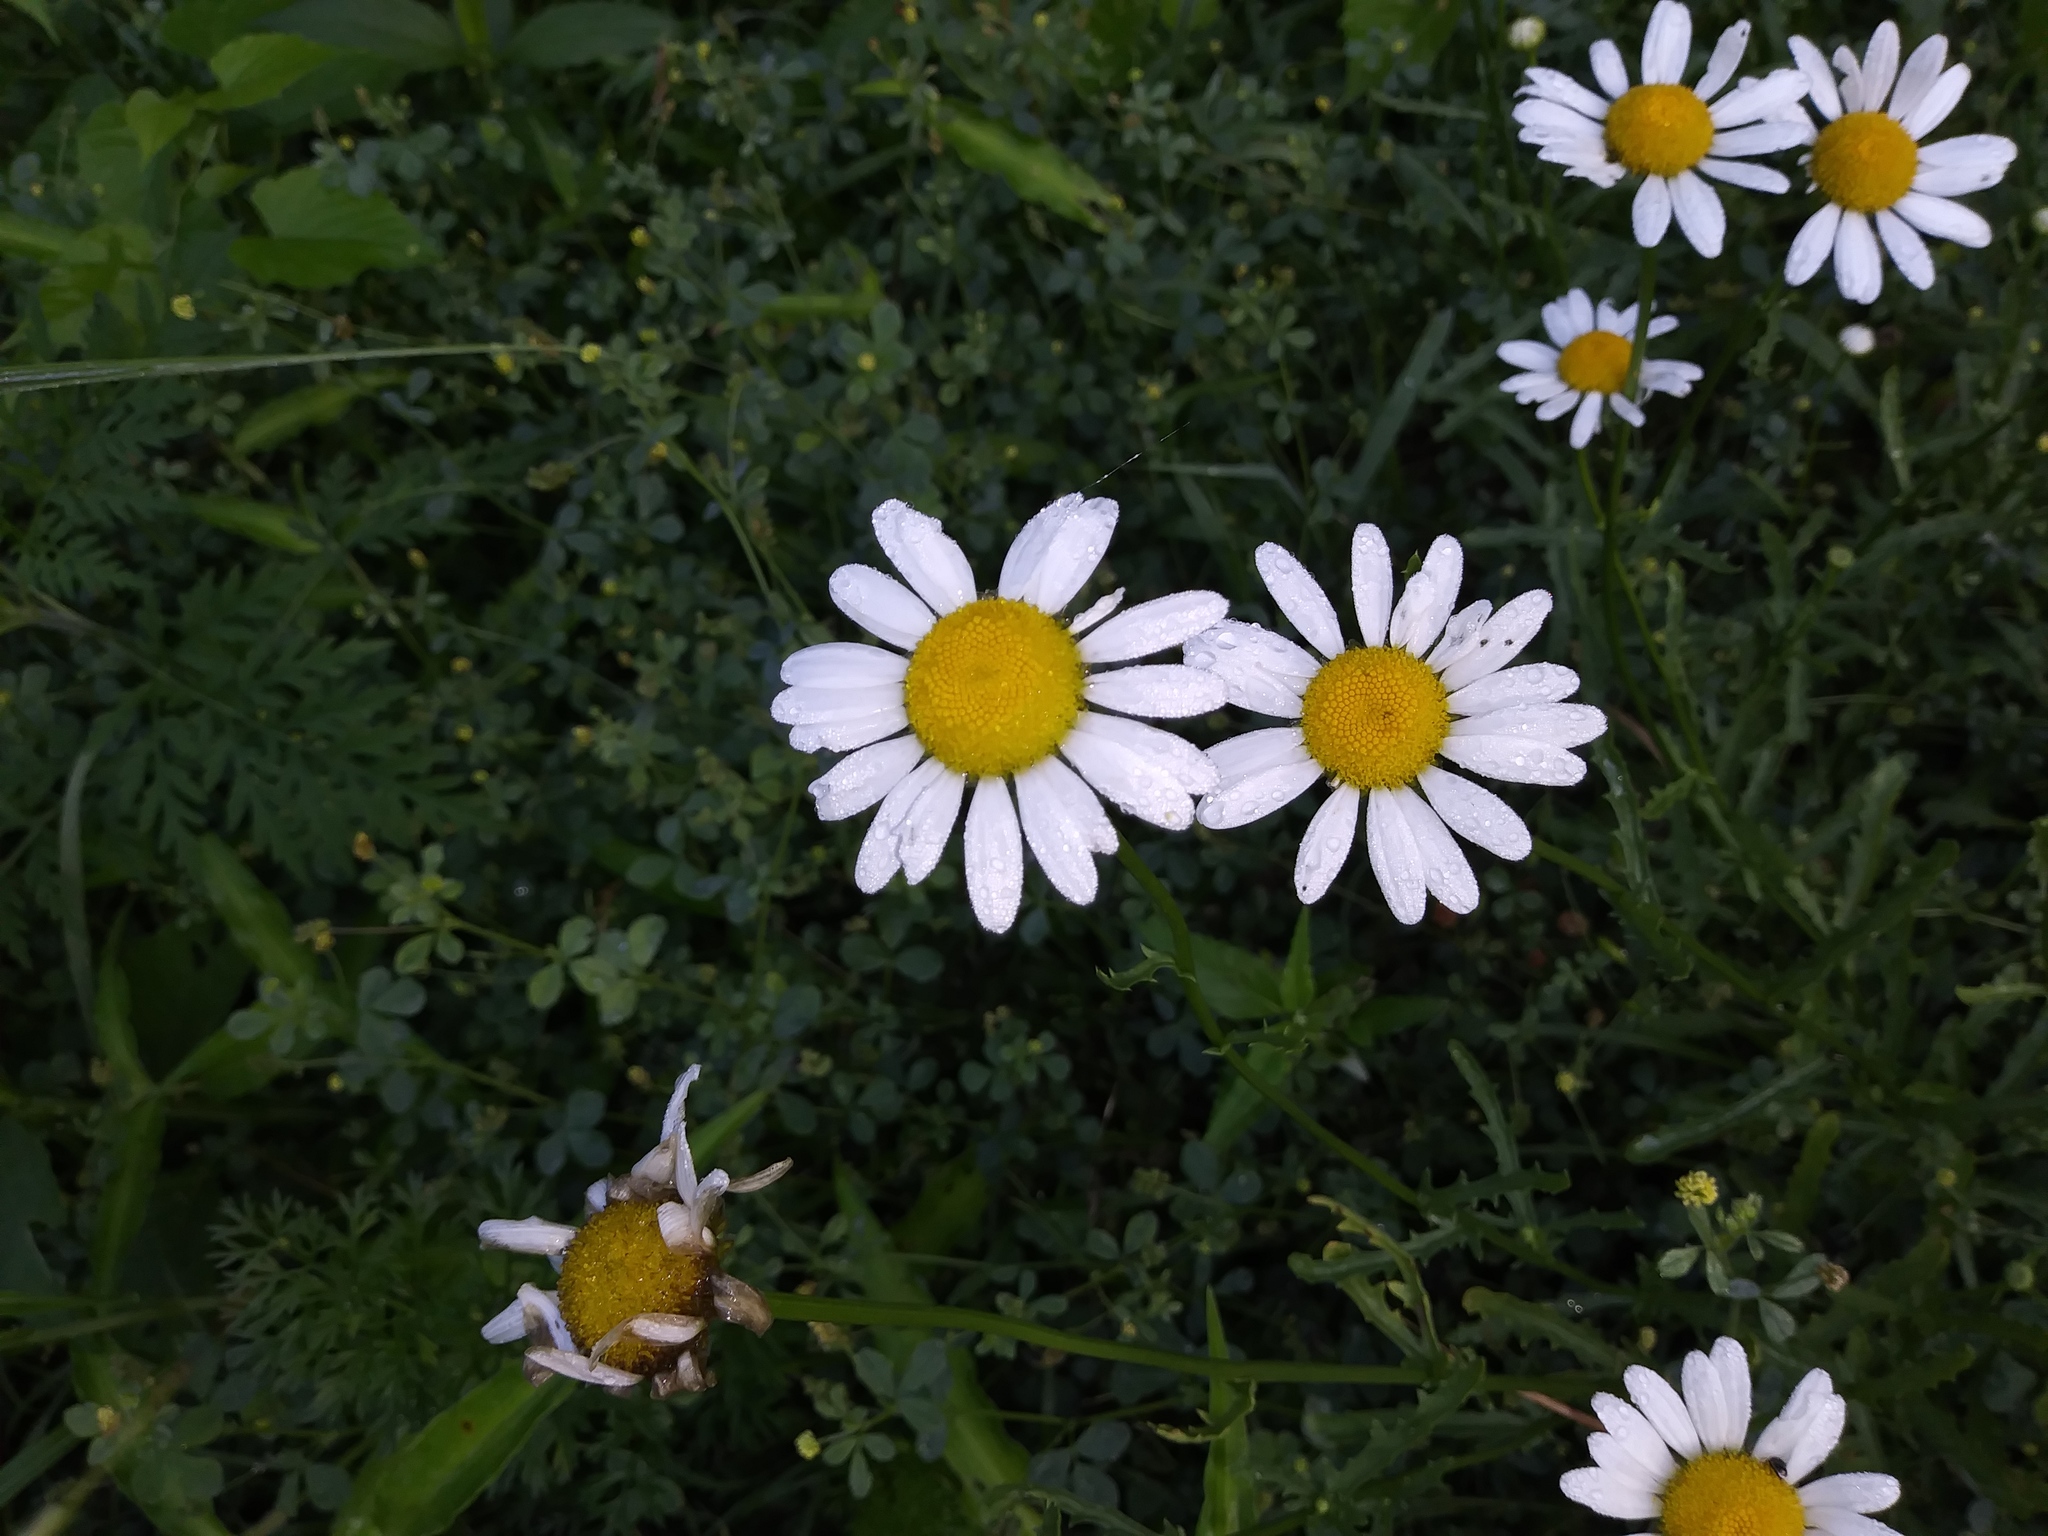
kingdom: Plantae
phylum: Tracheophyta
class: Magnoliopsida
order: Asterales
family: Asteraceae
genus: Leucanthemum
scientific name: Leucanthemum vulgare
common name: Oxeye daisy
